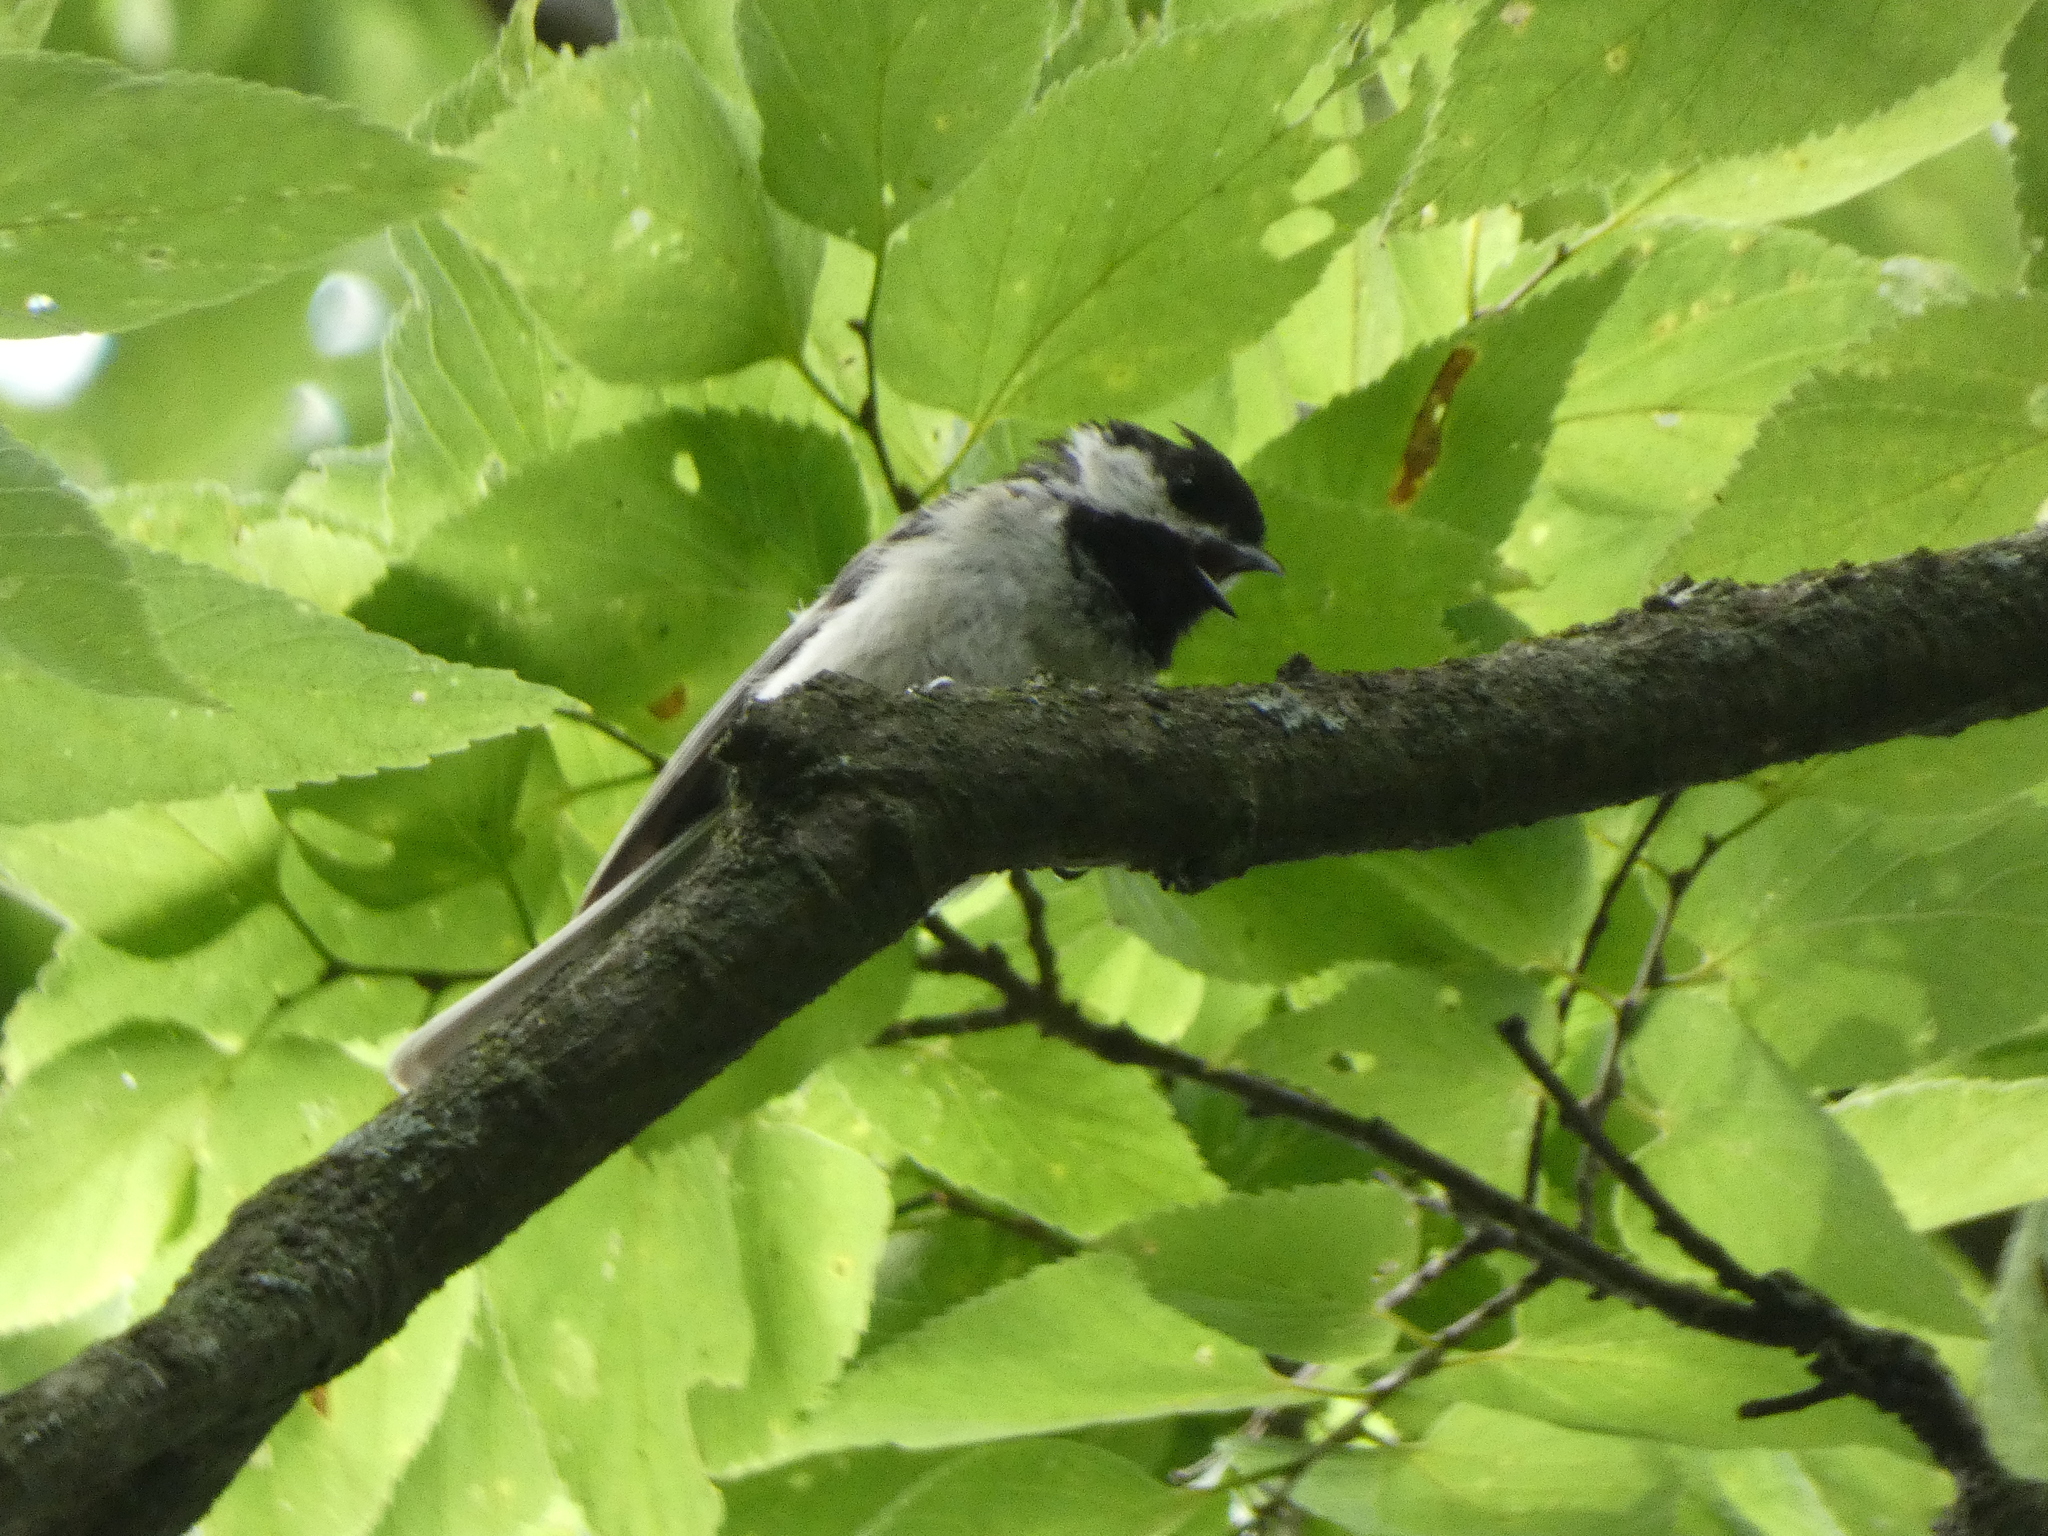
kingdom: Animalia
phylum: Chordata
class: Aves
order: Passeriformes
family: Paridae
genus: Poecile
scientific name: Poecile atricapillus
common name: Black-capped chickadee
